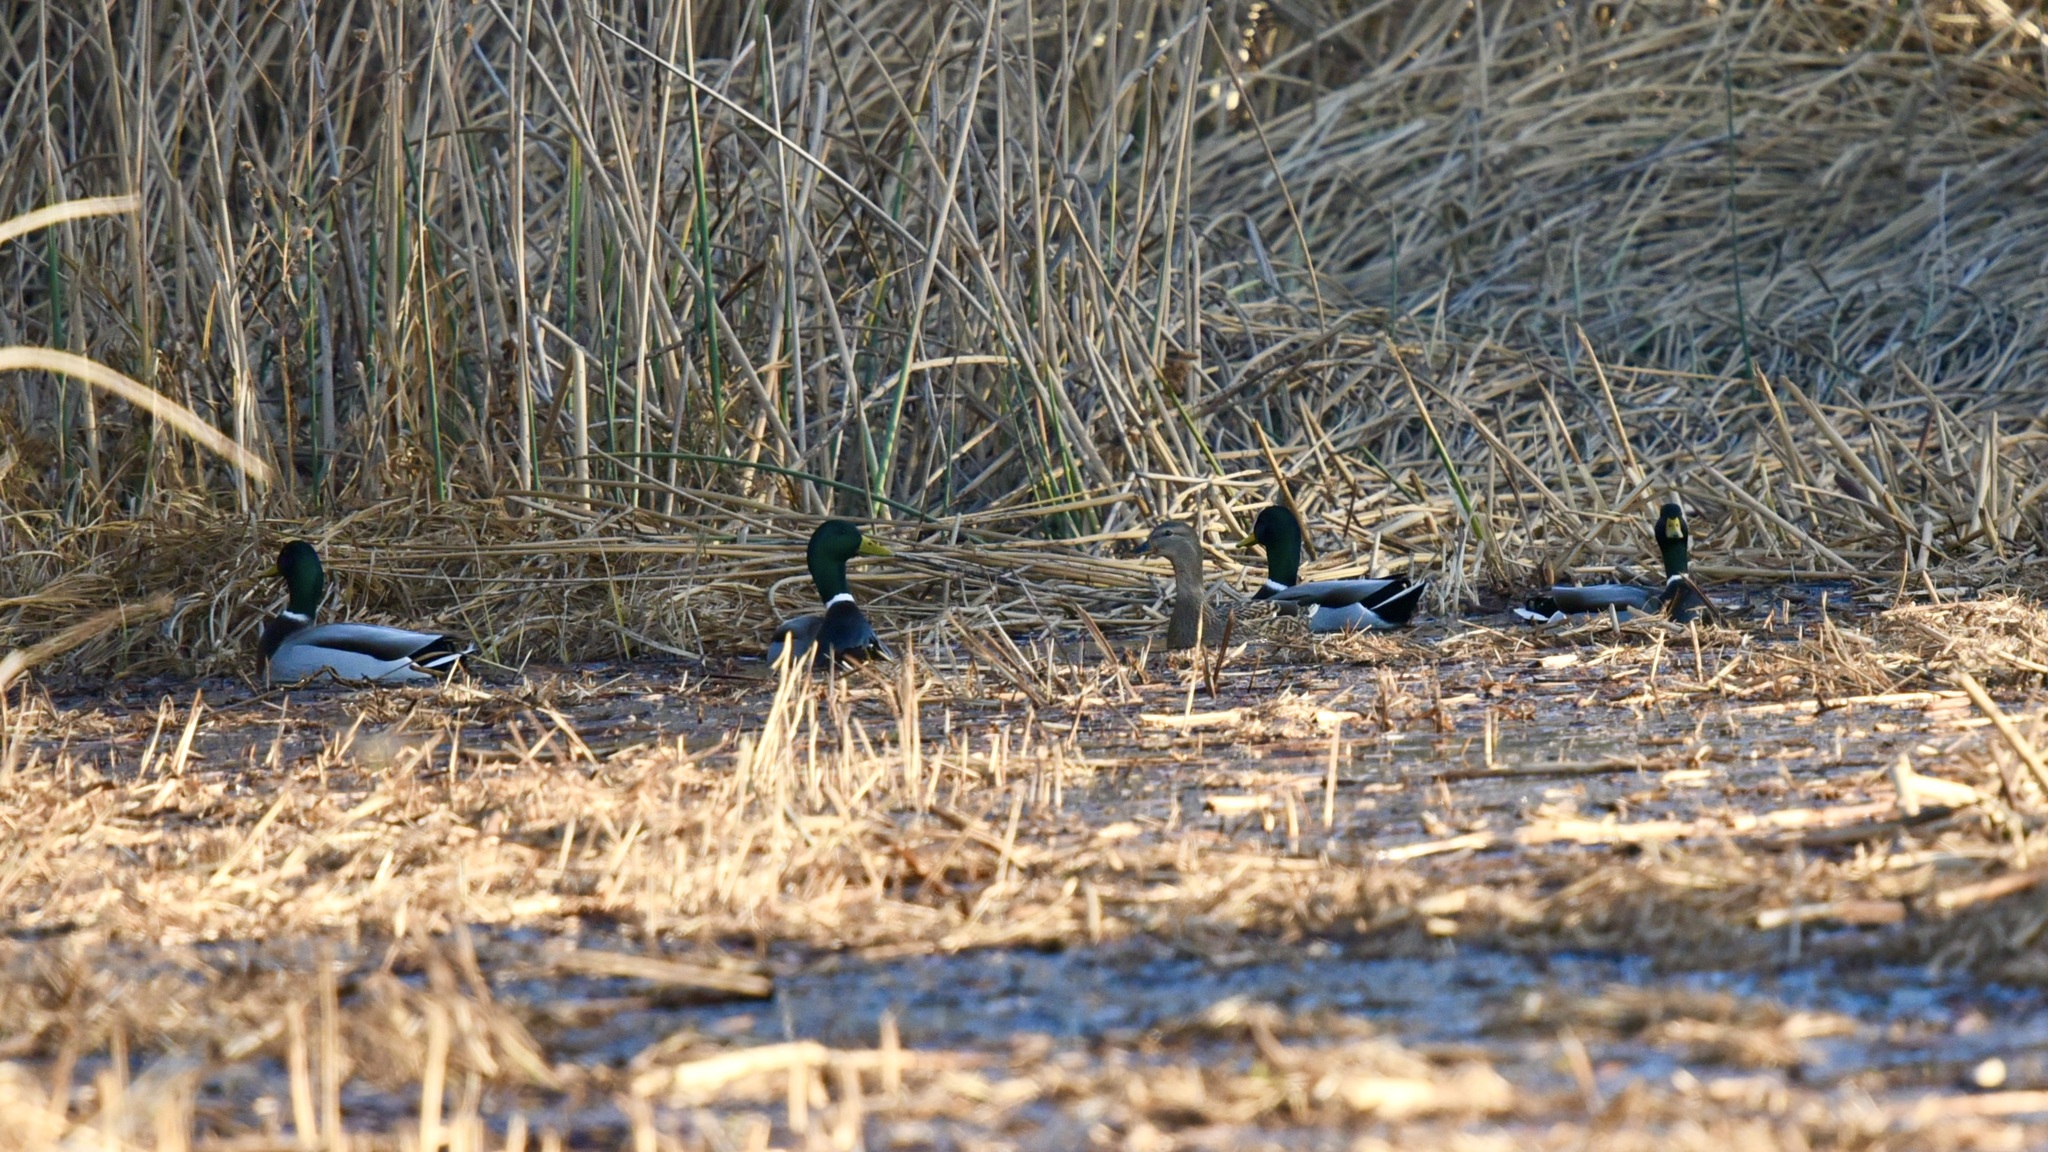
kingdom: Animalia
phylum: Chordata
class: Aves
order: Anseriformes
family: Anatidae
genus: Anas
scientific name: Anas platyrhynchos
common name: Mallard
